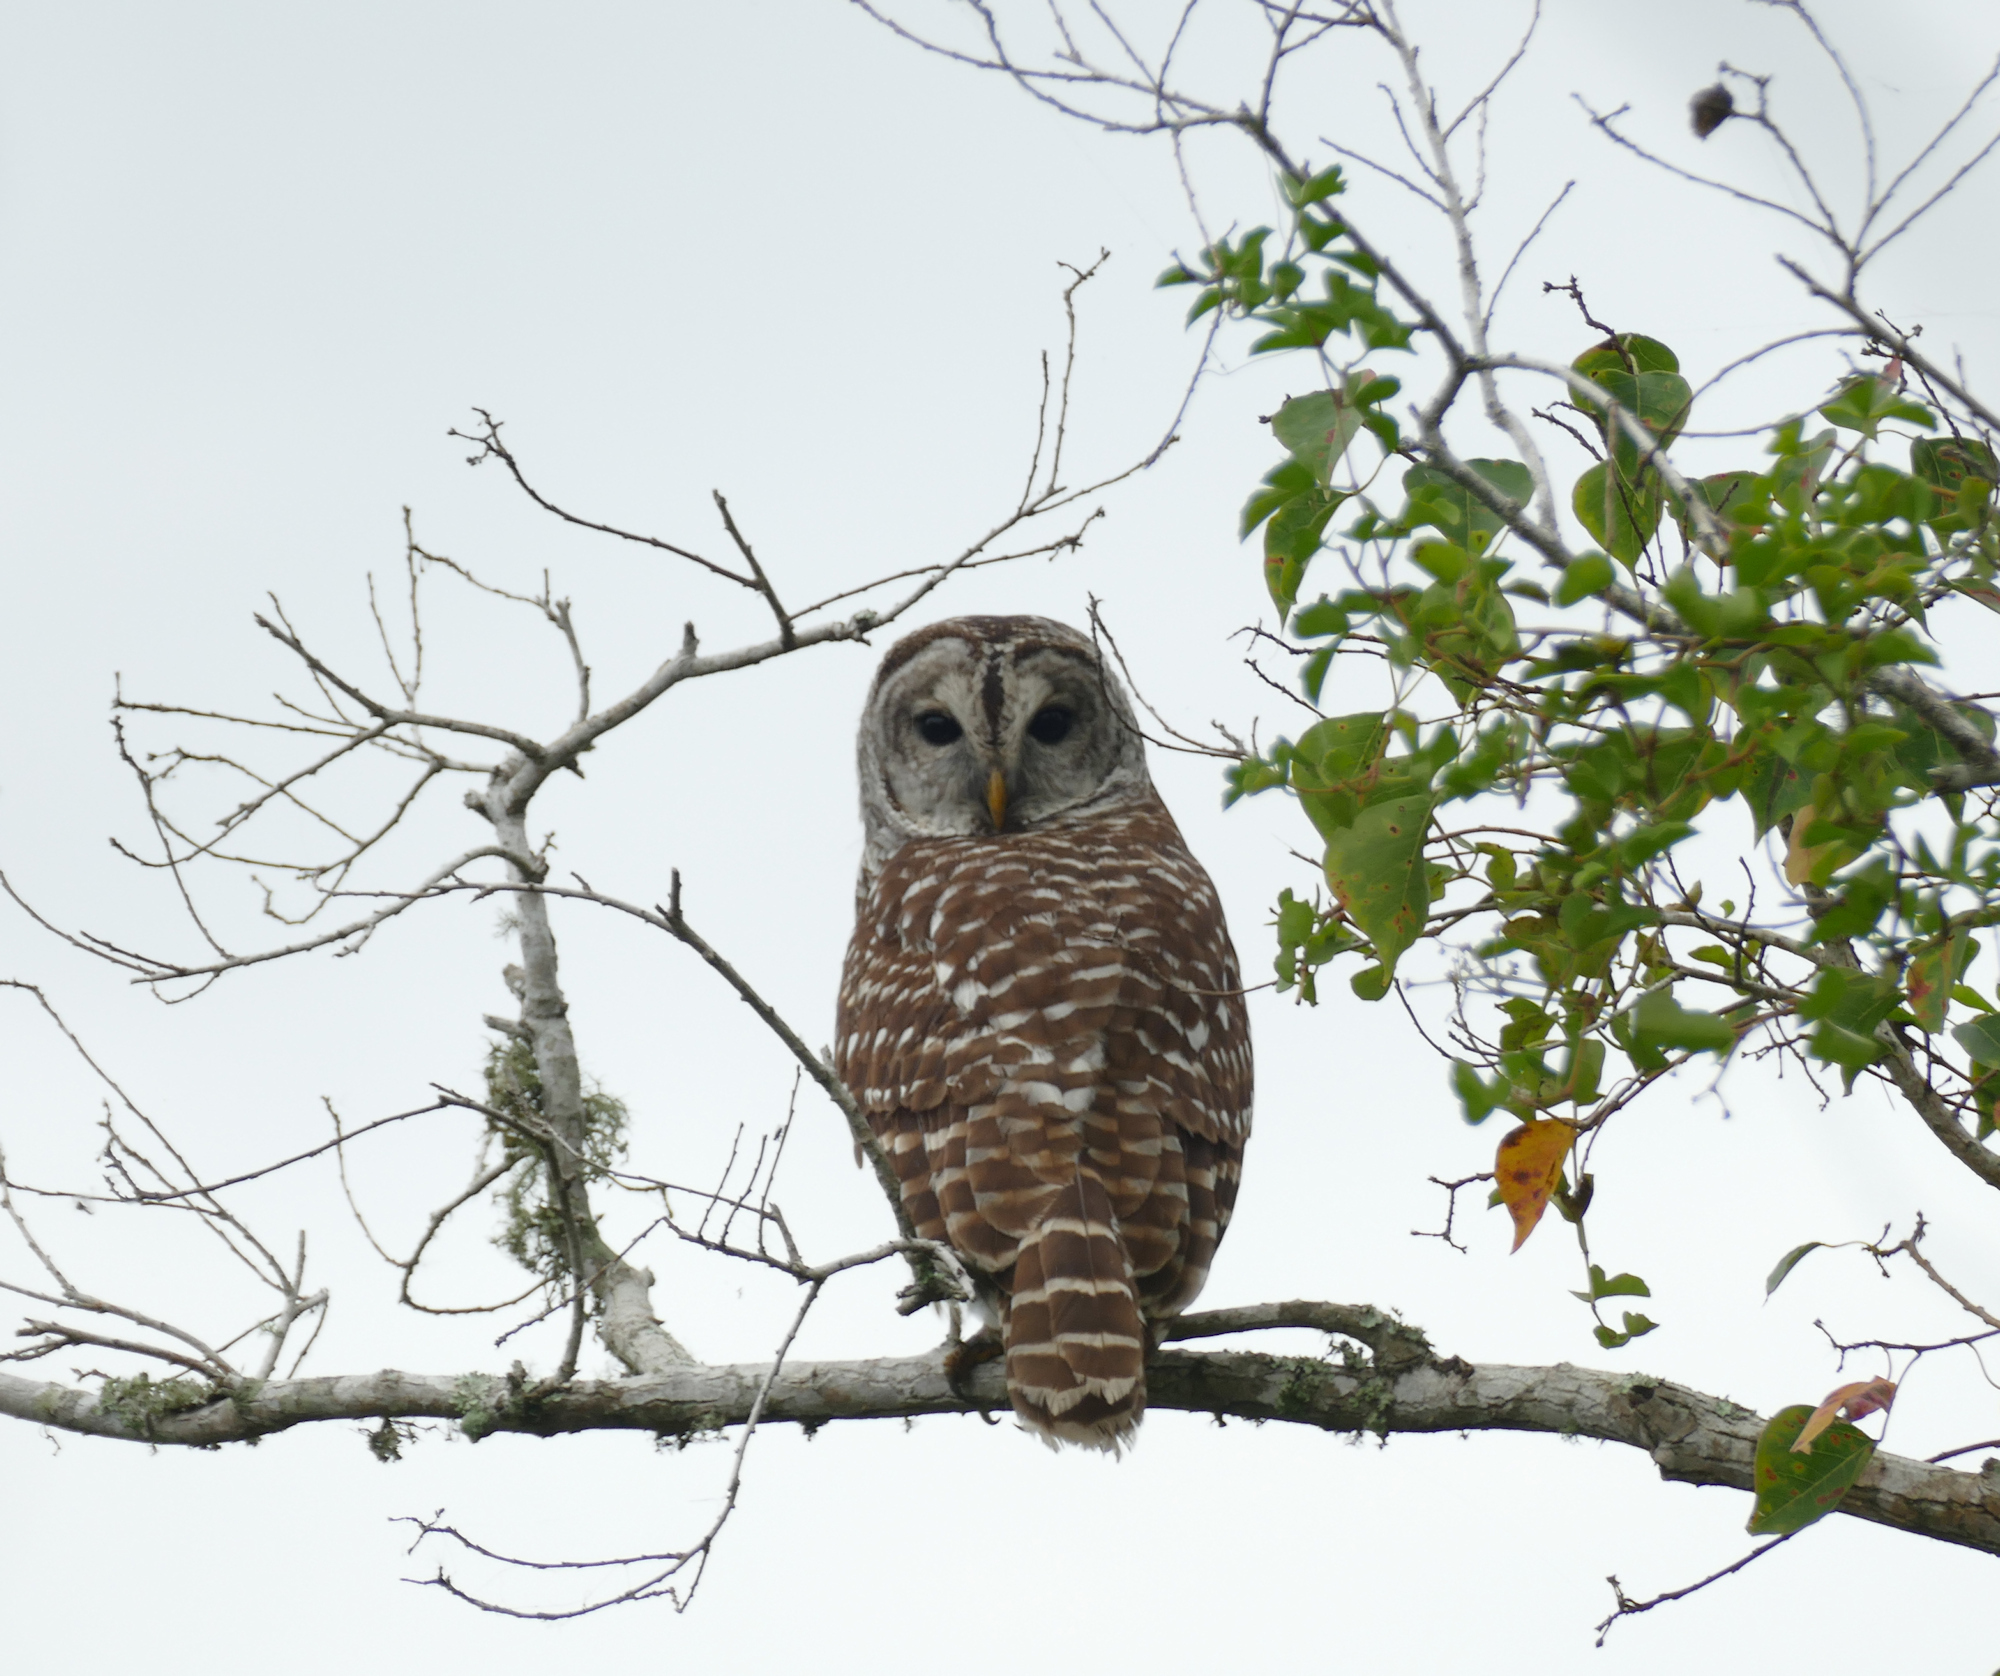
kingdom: Animalia
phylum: Chordata
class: Aves
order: Strigiformes
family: Strigidae
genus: Strix
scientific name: Strix varia
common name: Barred owl
